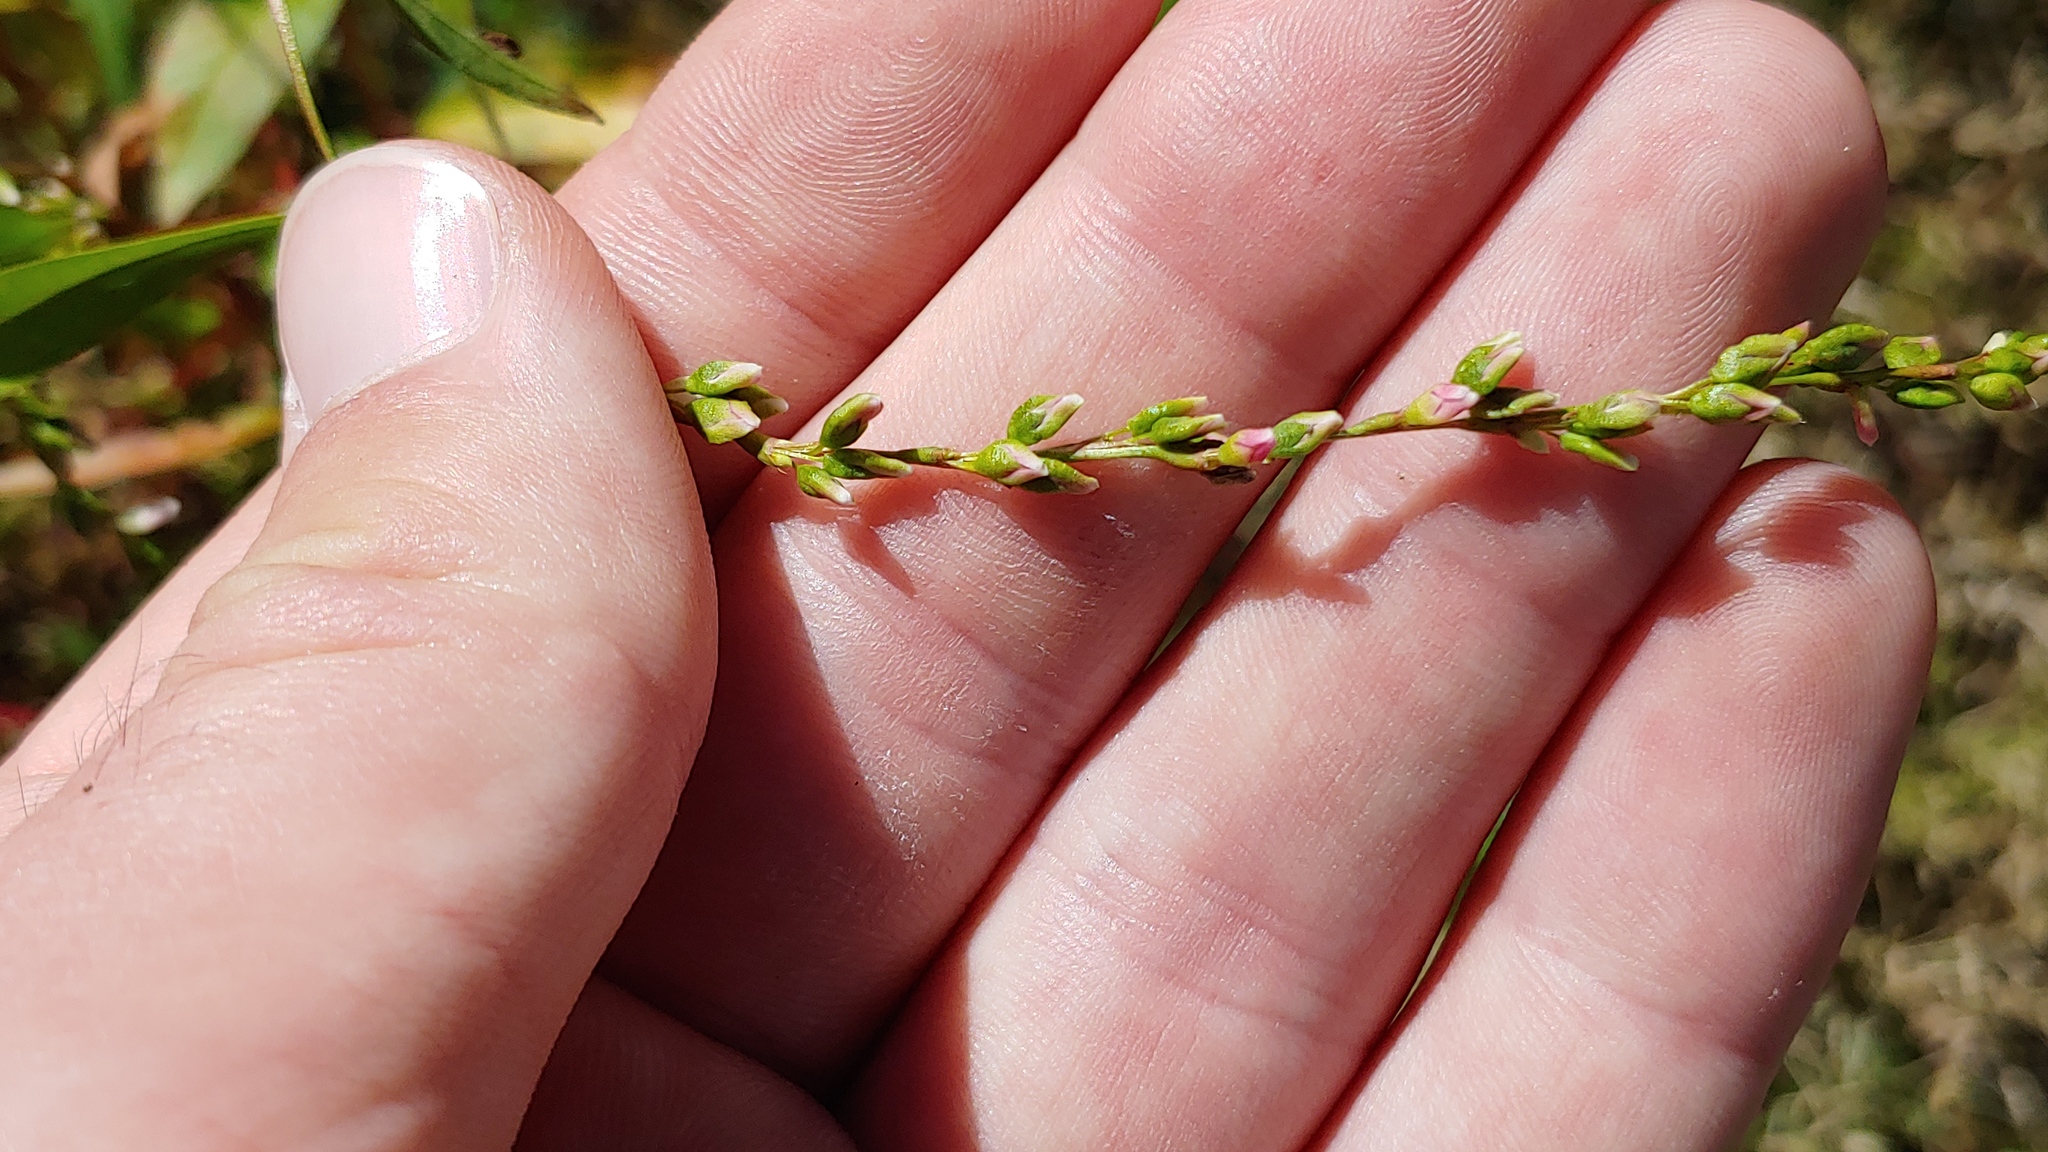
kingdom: Plantae
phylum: Tracheophyta
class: Magnoliopsida
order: Caryophyllales
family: Polygonaceae
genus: Persicaria
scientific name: Persicaria hydropiper
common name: Water-pepper
